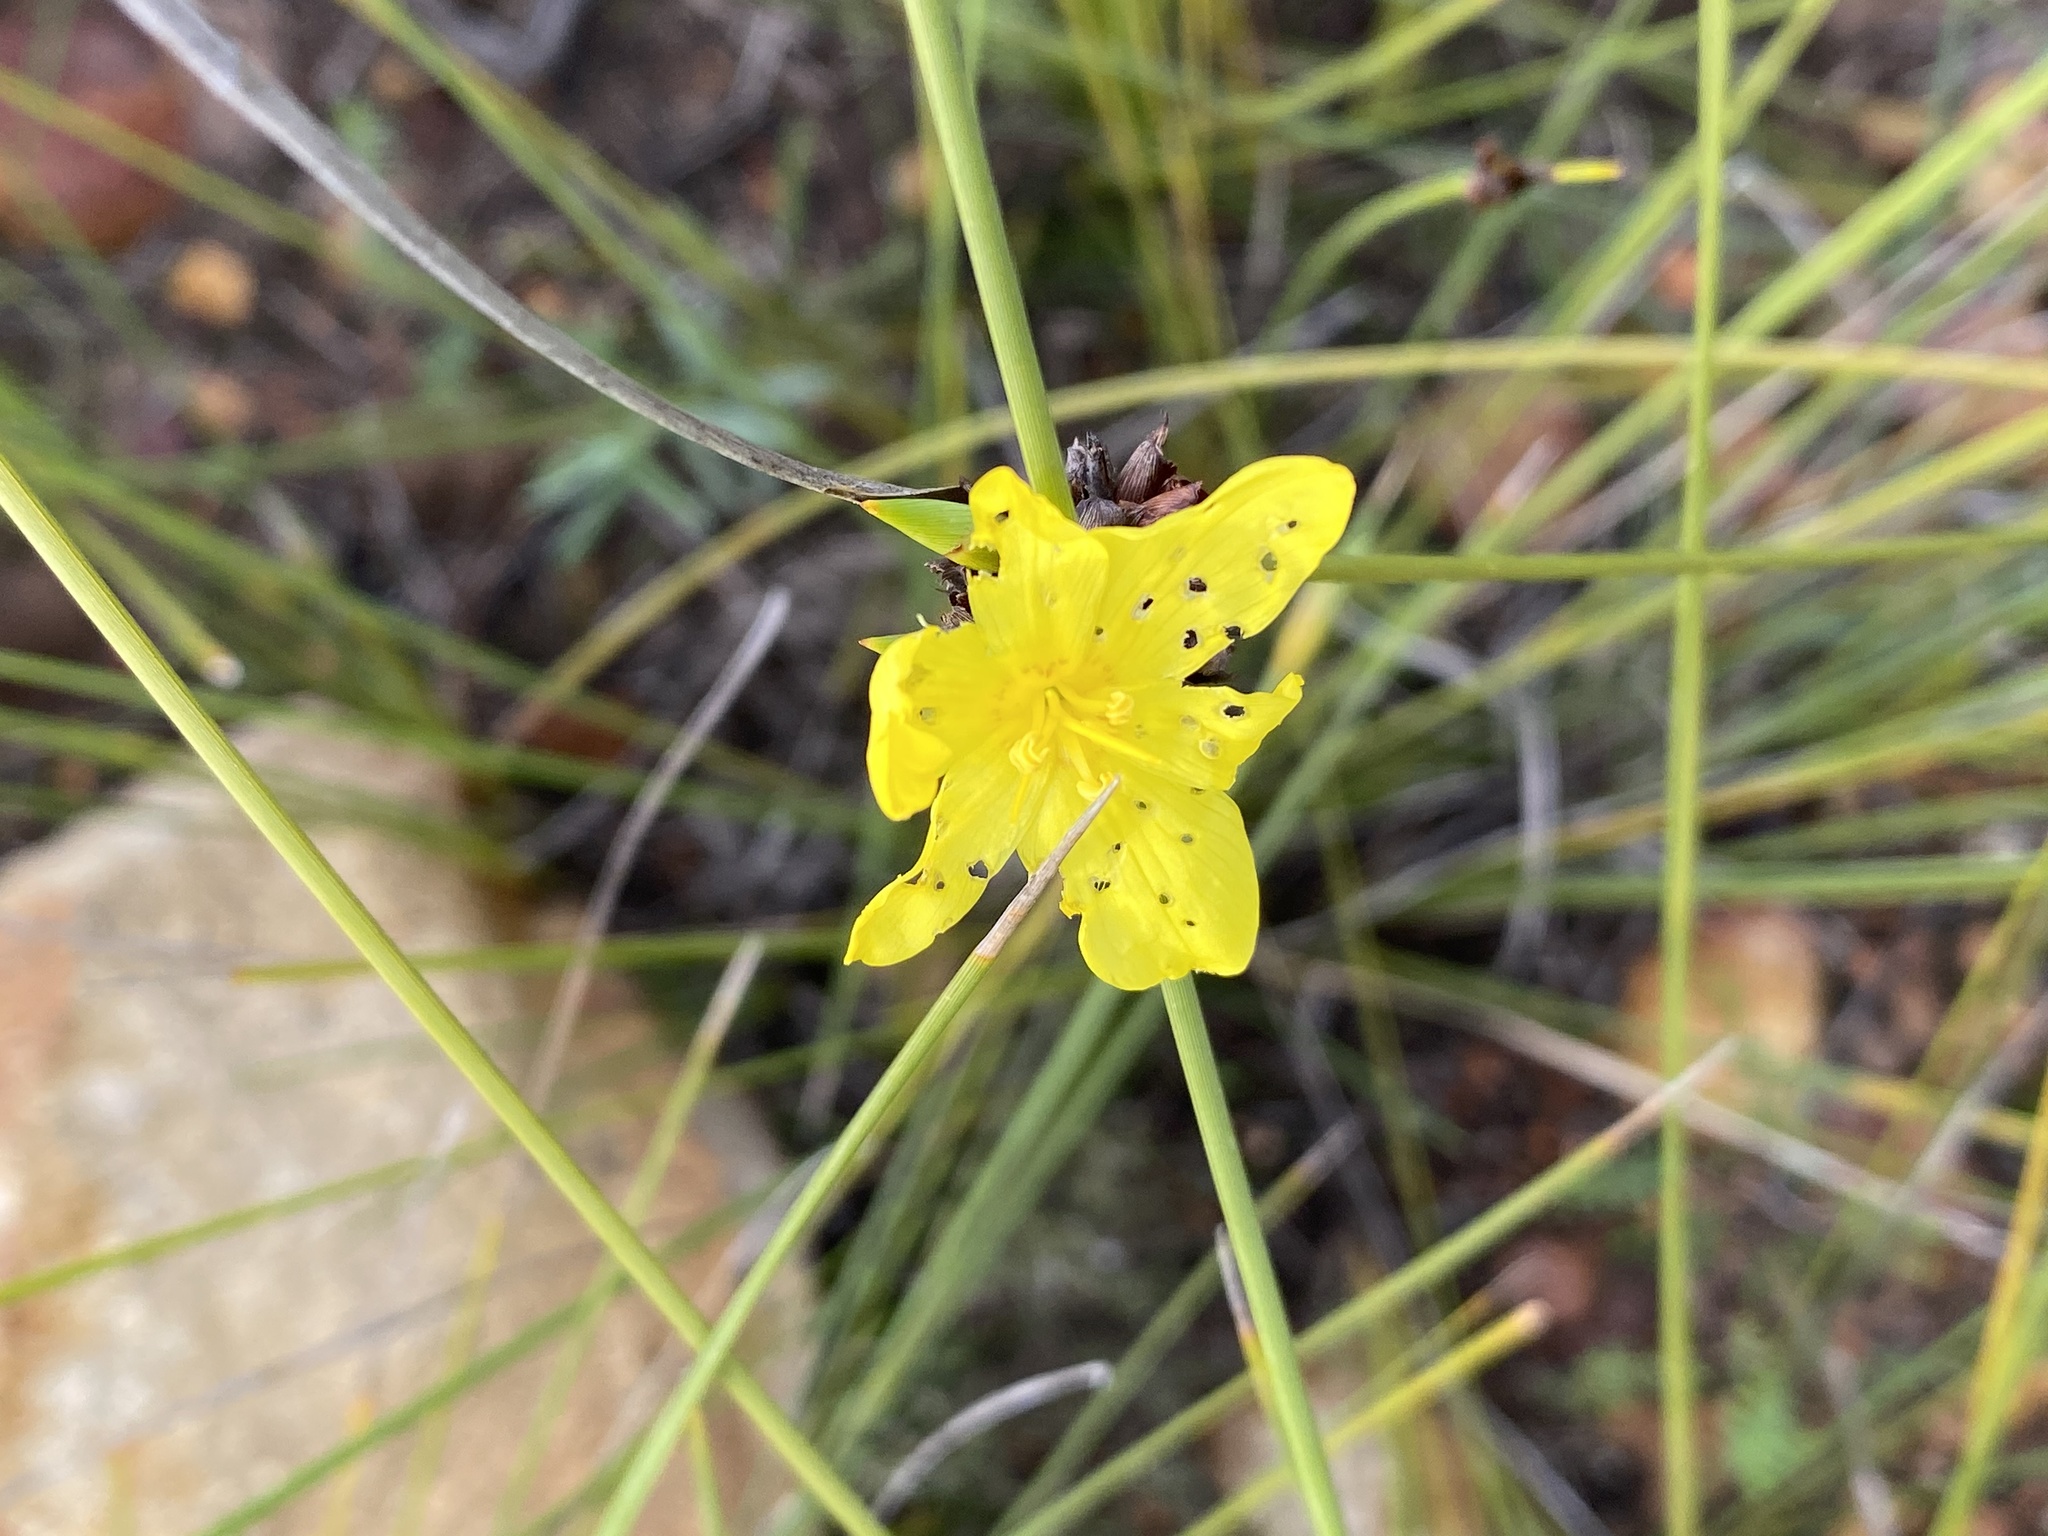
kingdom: Plantae
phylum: Tracheophyta
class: Liliopsida
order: Asparagales
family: Iridaceae
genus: Bobartia
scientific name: Bobartia macrospatha
